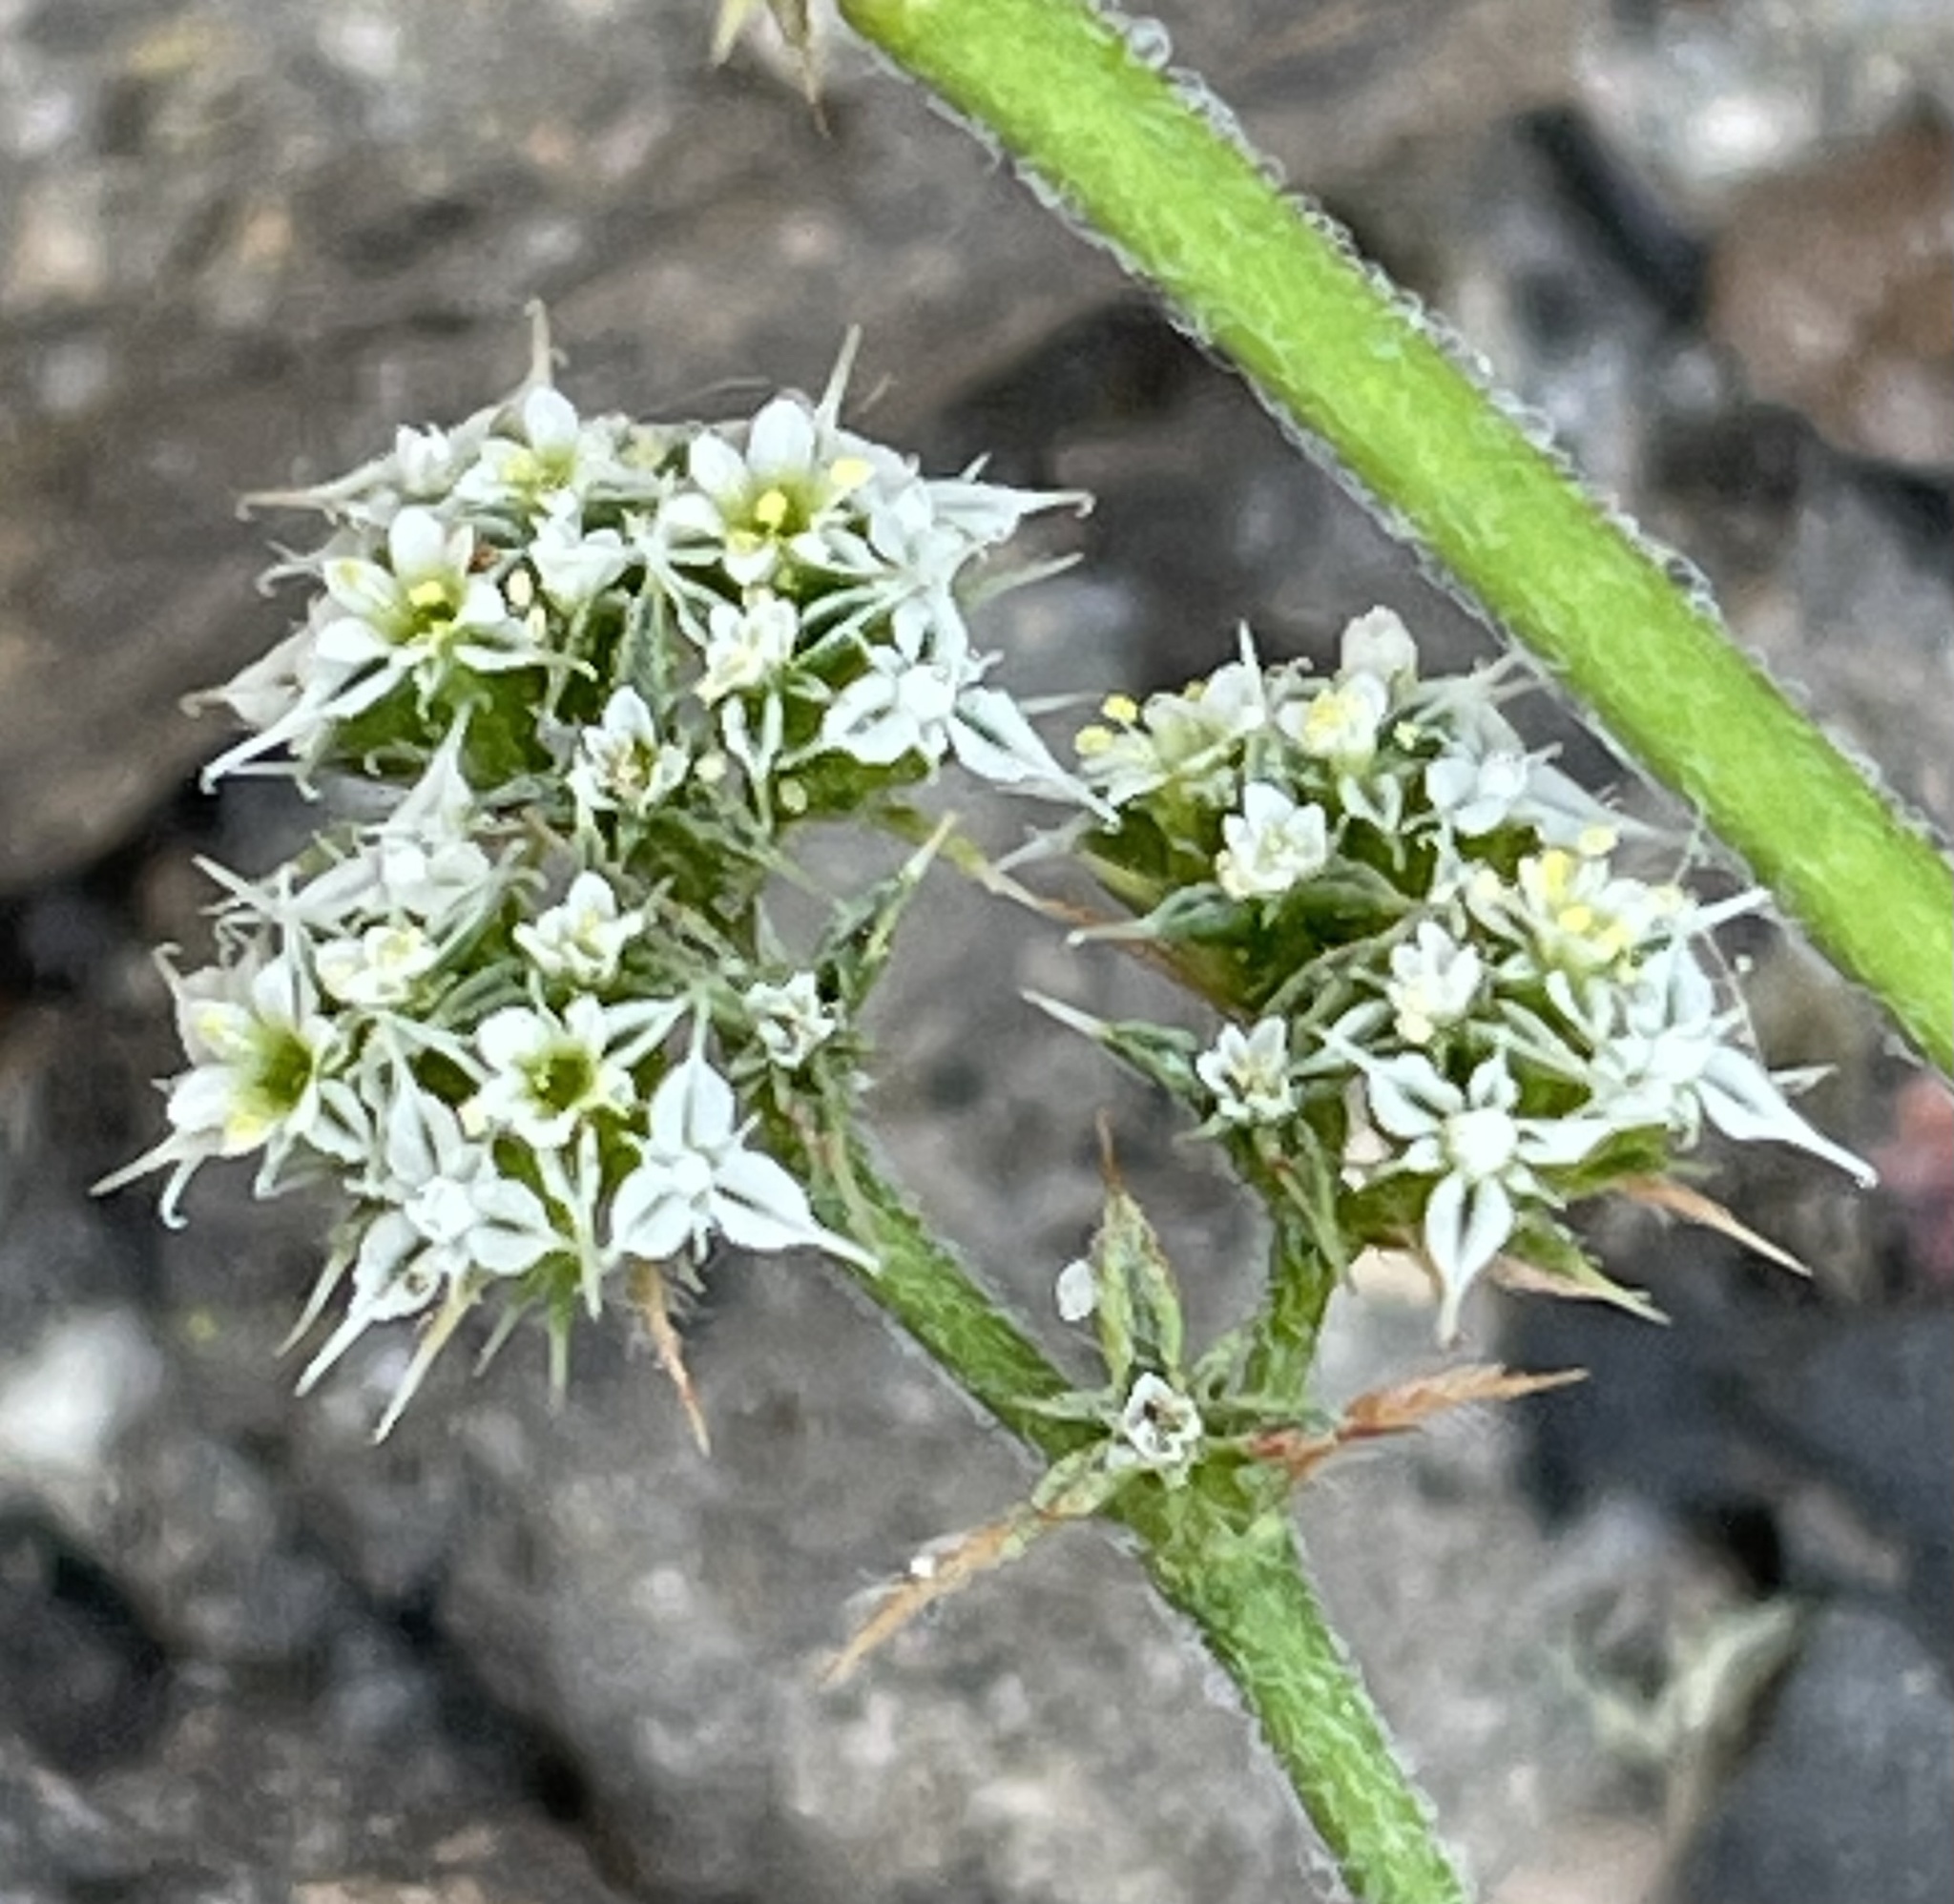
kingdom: Plantae
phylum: Tracheophyta
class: Magnoliopsida
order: Caryophyllales
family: Polygonaceae
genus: Chorizanthe
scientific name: Chorizanthe diffusa
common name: Diffuse spineflower
